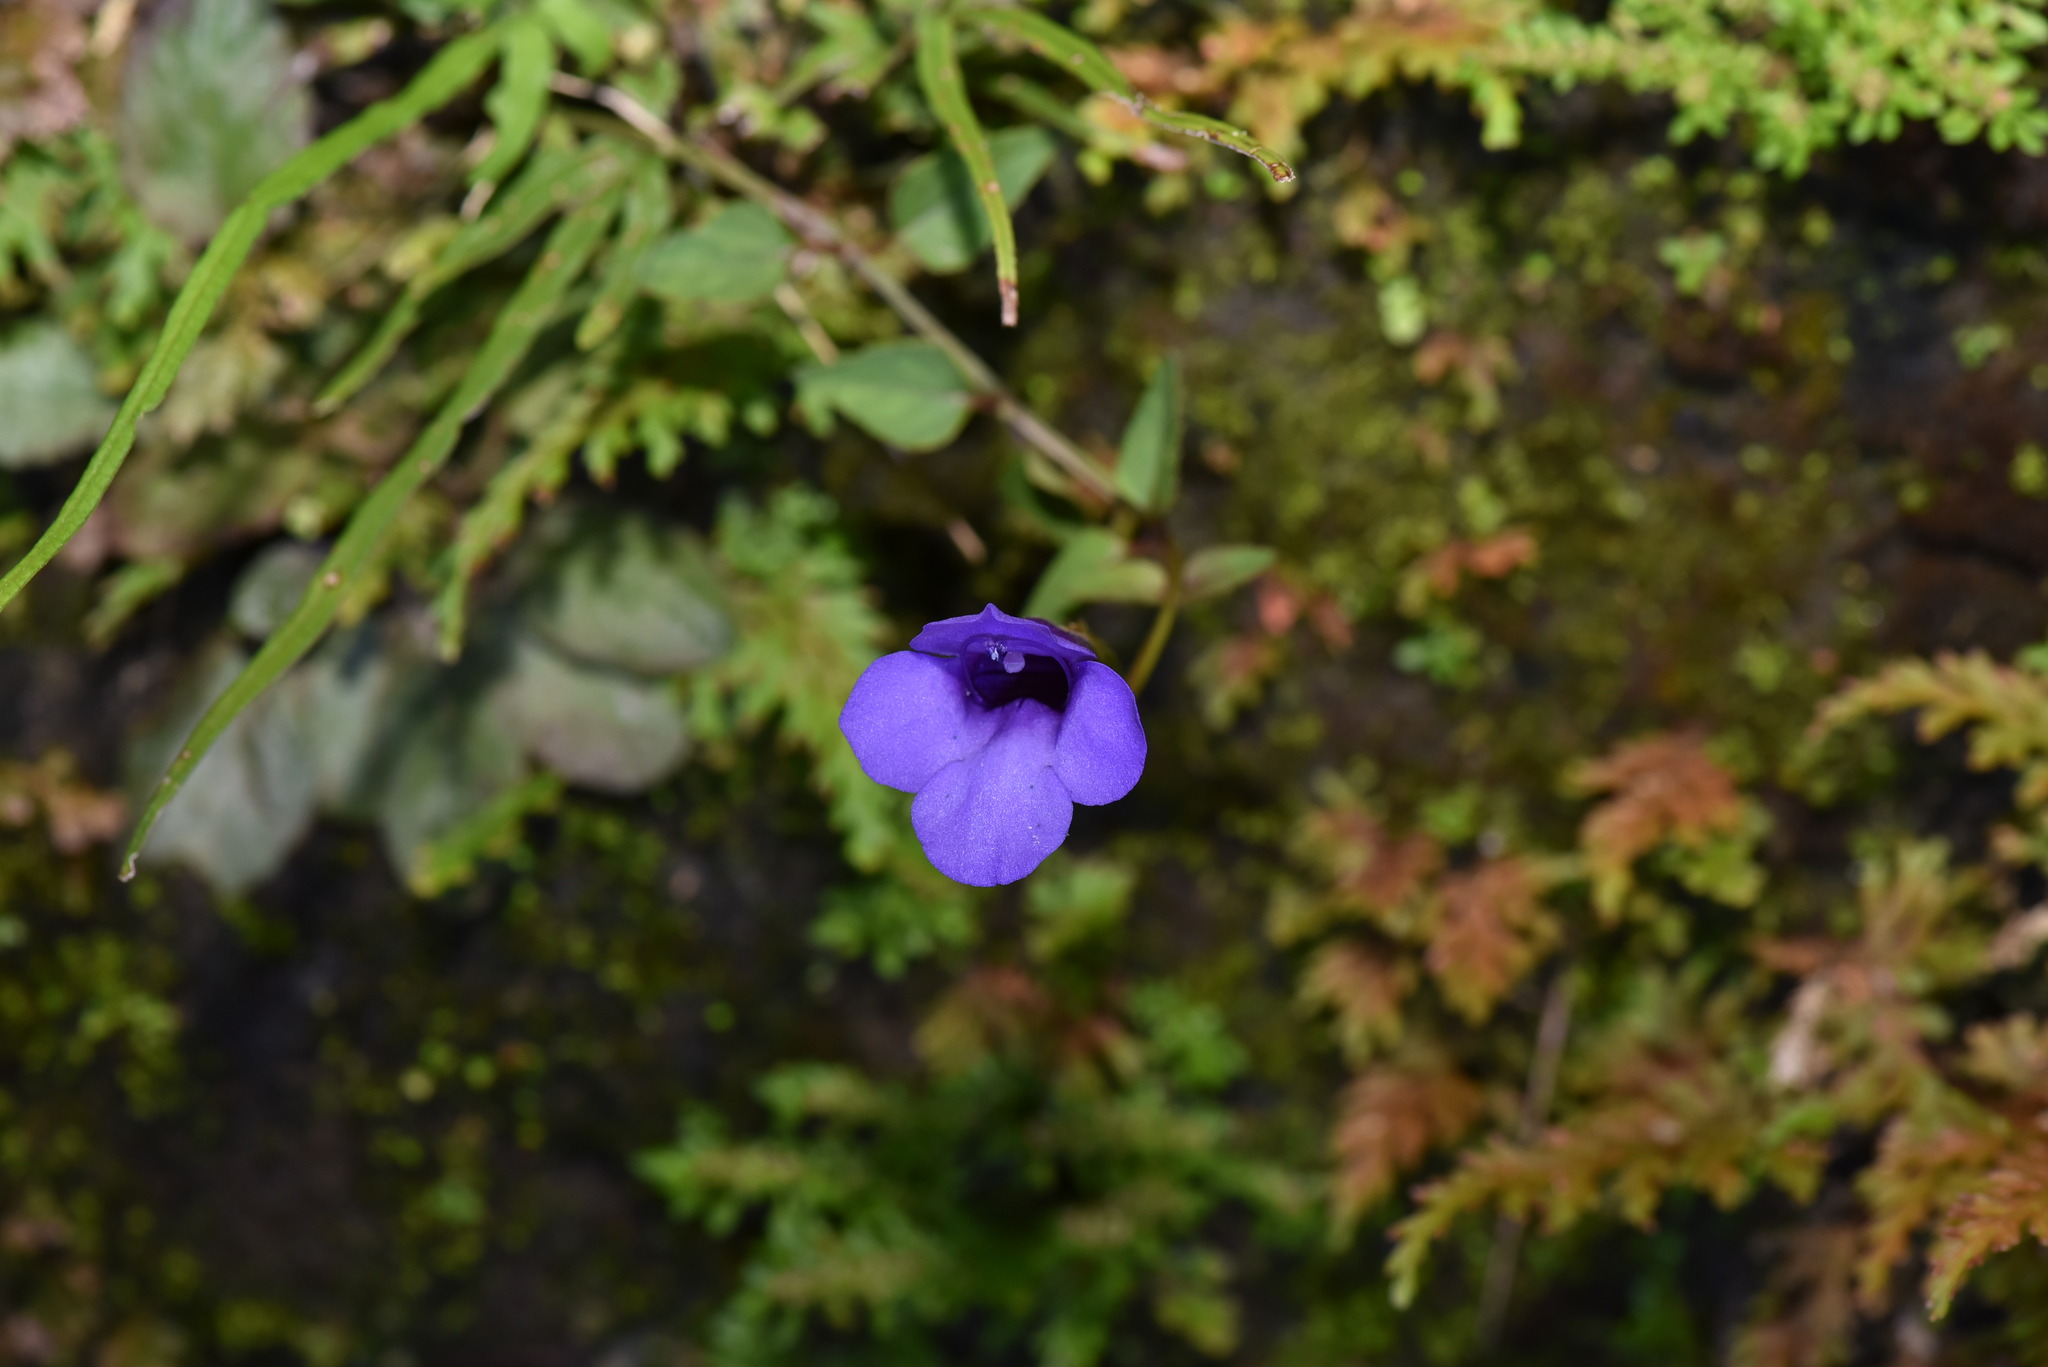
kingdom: Plantae
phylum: Tracheophyta
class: Magnoliopsida
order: Lamiales
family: Linderniaceae
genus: Torenia
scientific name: Torenia concolor
